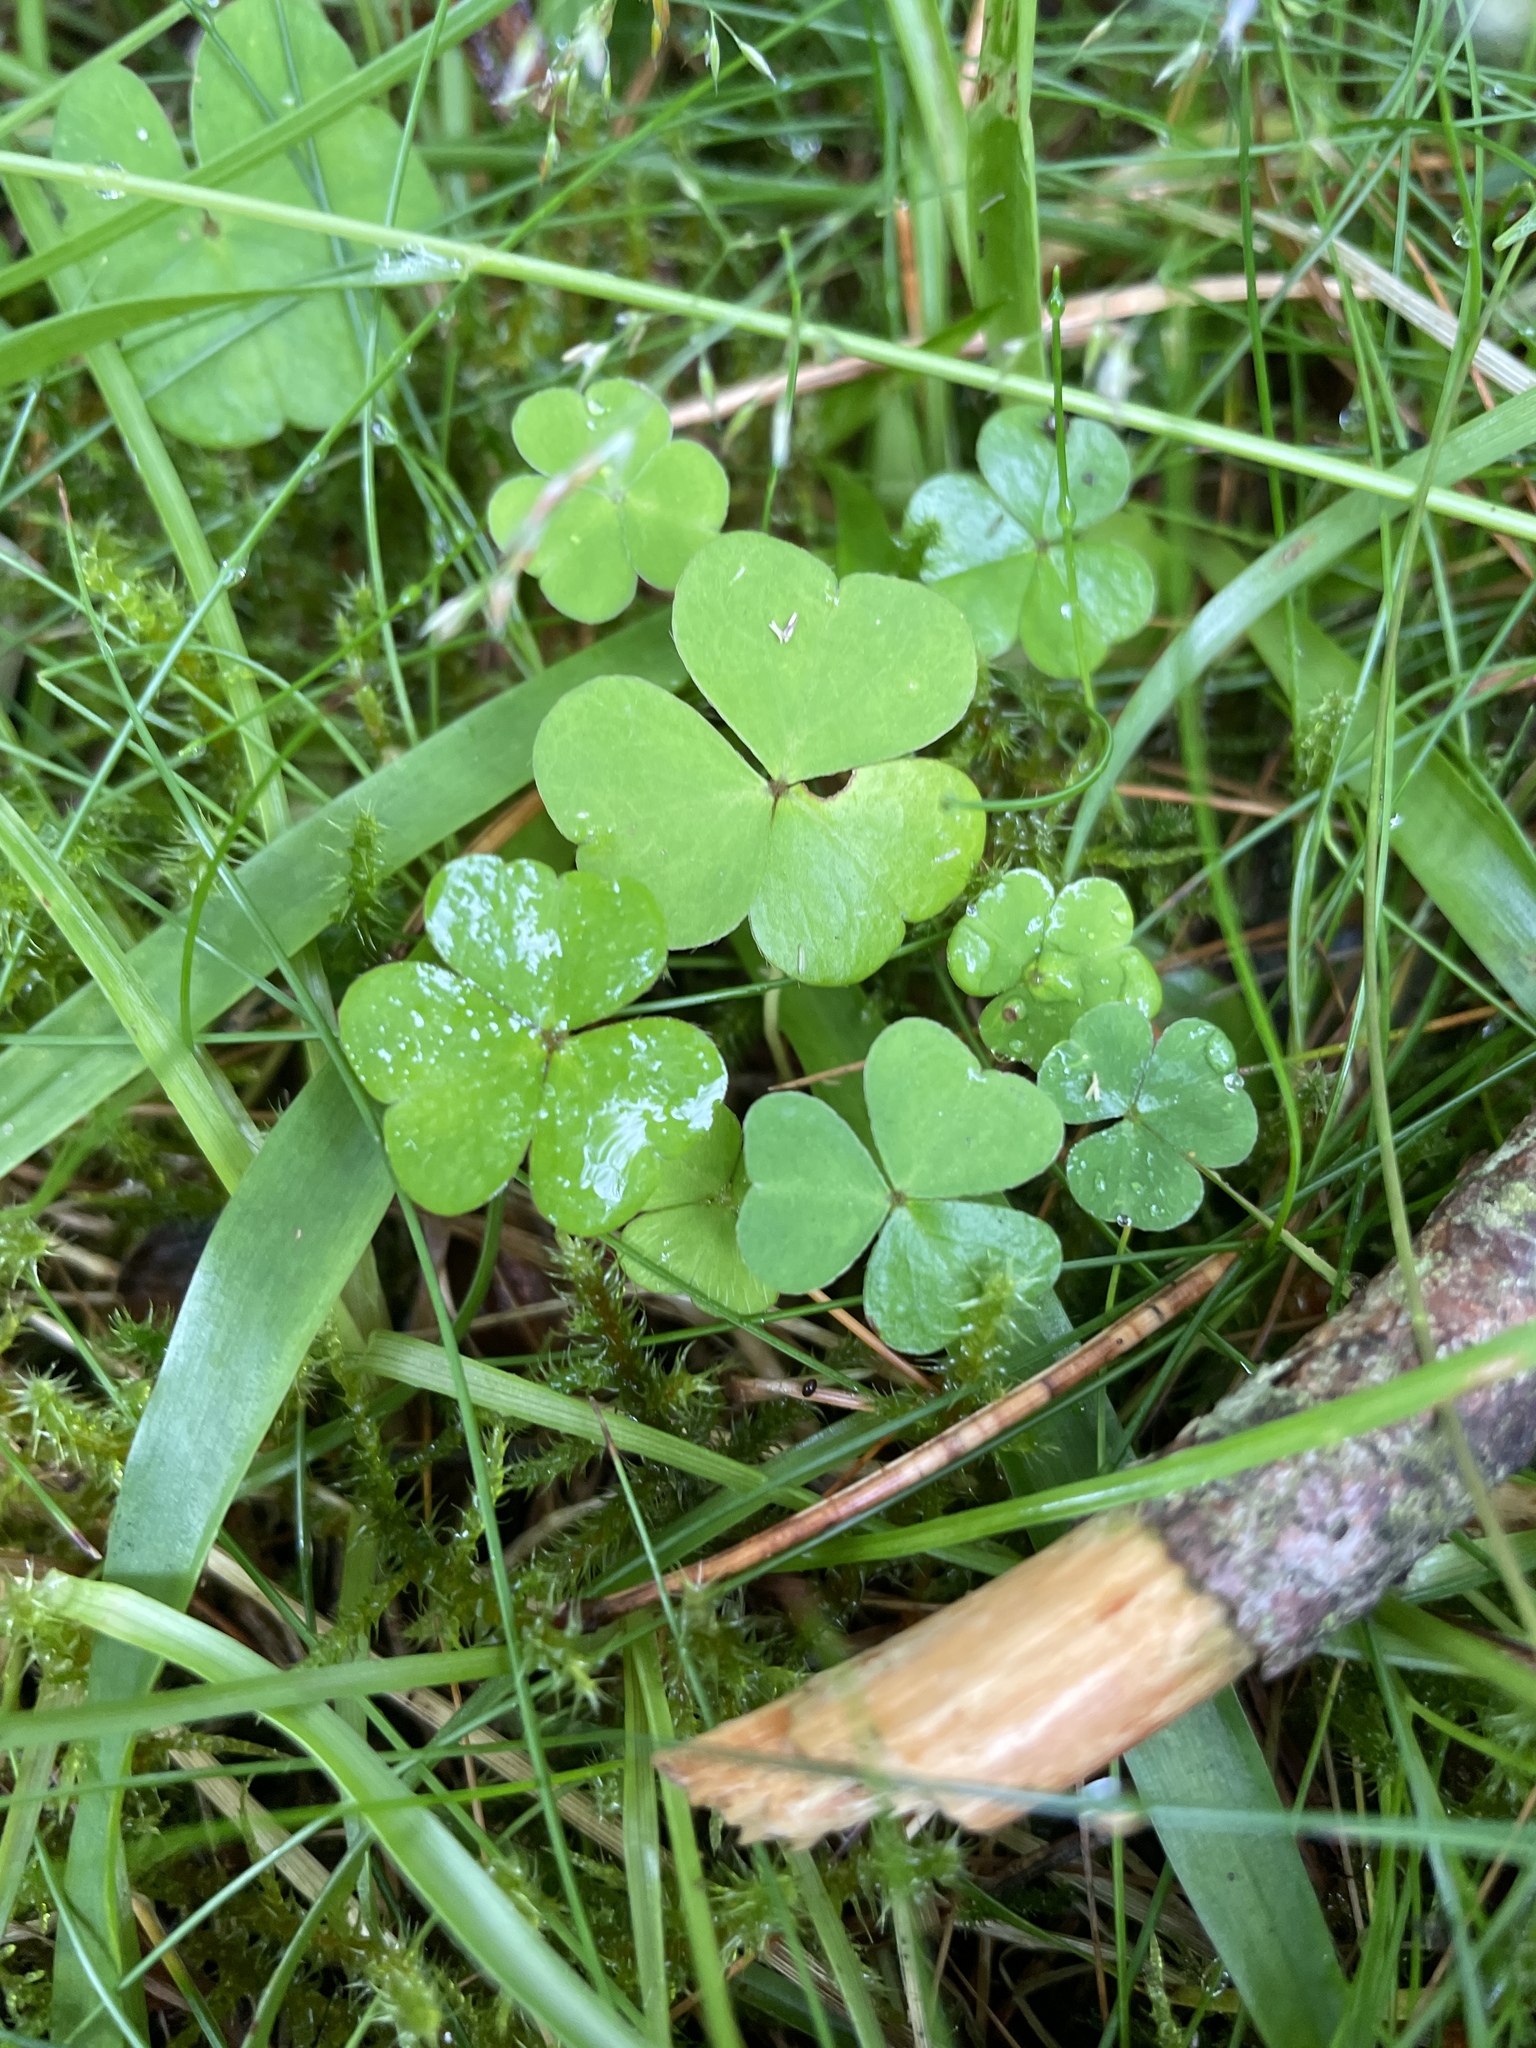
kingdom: Plantae
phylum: Tracheophyta
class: Magnoliopsida
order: Oxalidales
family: Oxalidaceae
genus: Oxalis
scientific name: Oxalis acetosella
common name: Wood-sorrel
